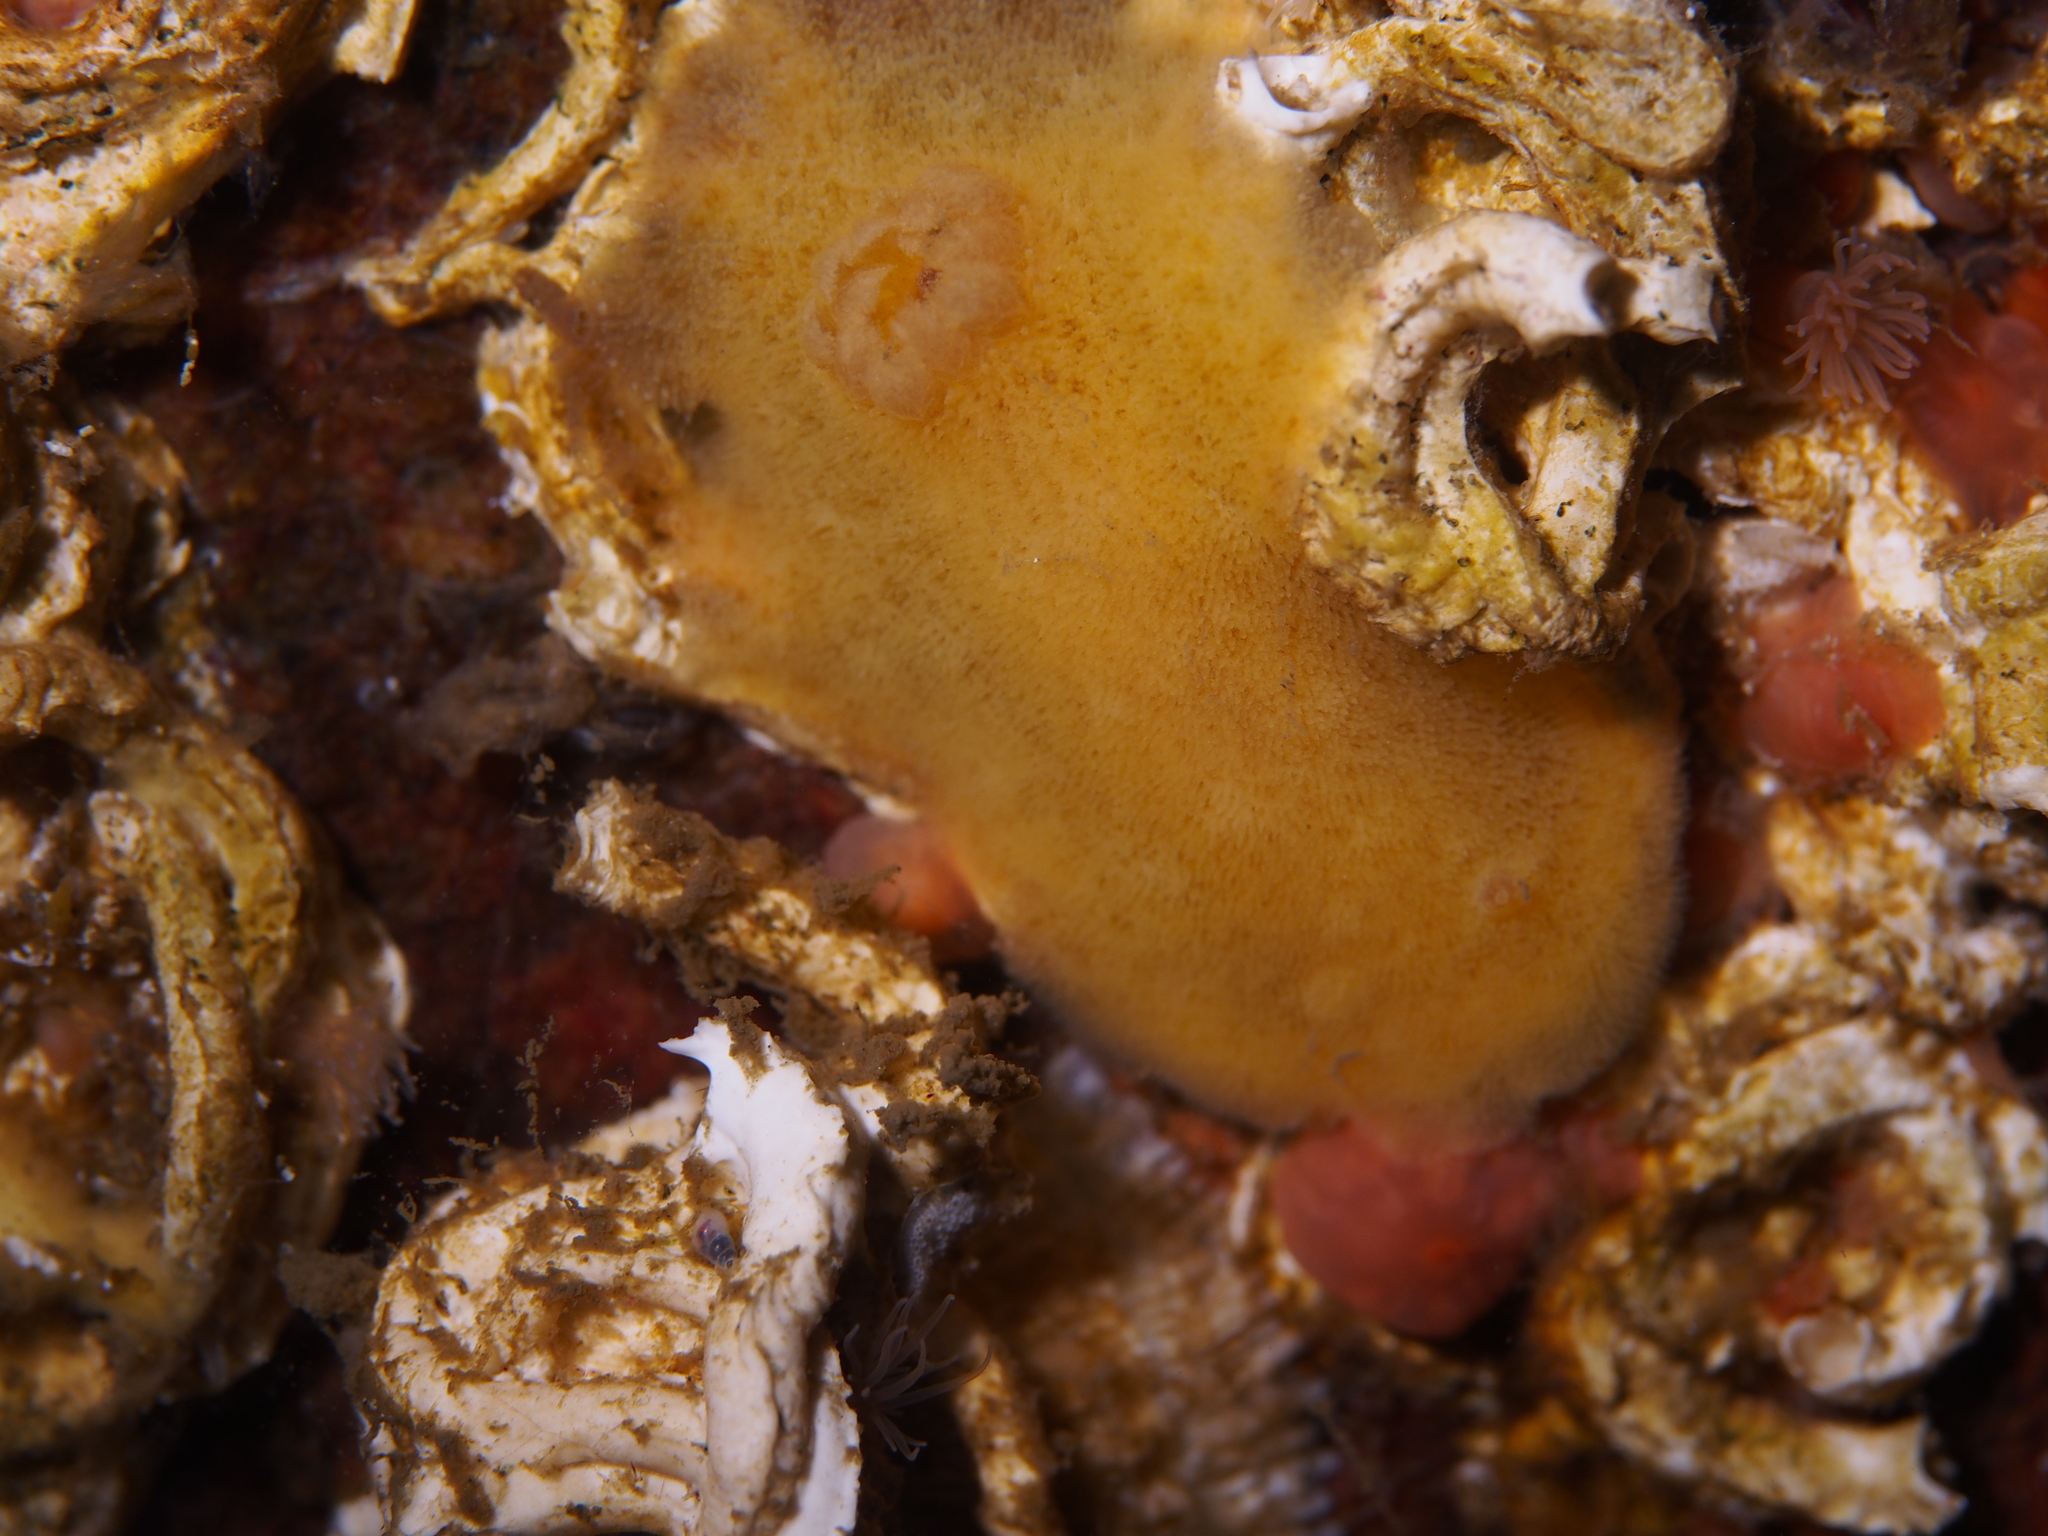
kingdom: Animalia
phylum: Mollusca
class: Gastropoda
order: Nudibranchia
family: Discodorididae
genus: Jorunna
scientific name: Jorunna tomentosa
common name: Grey sea slug
